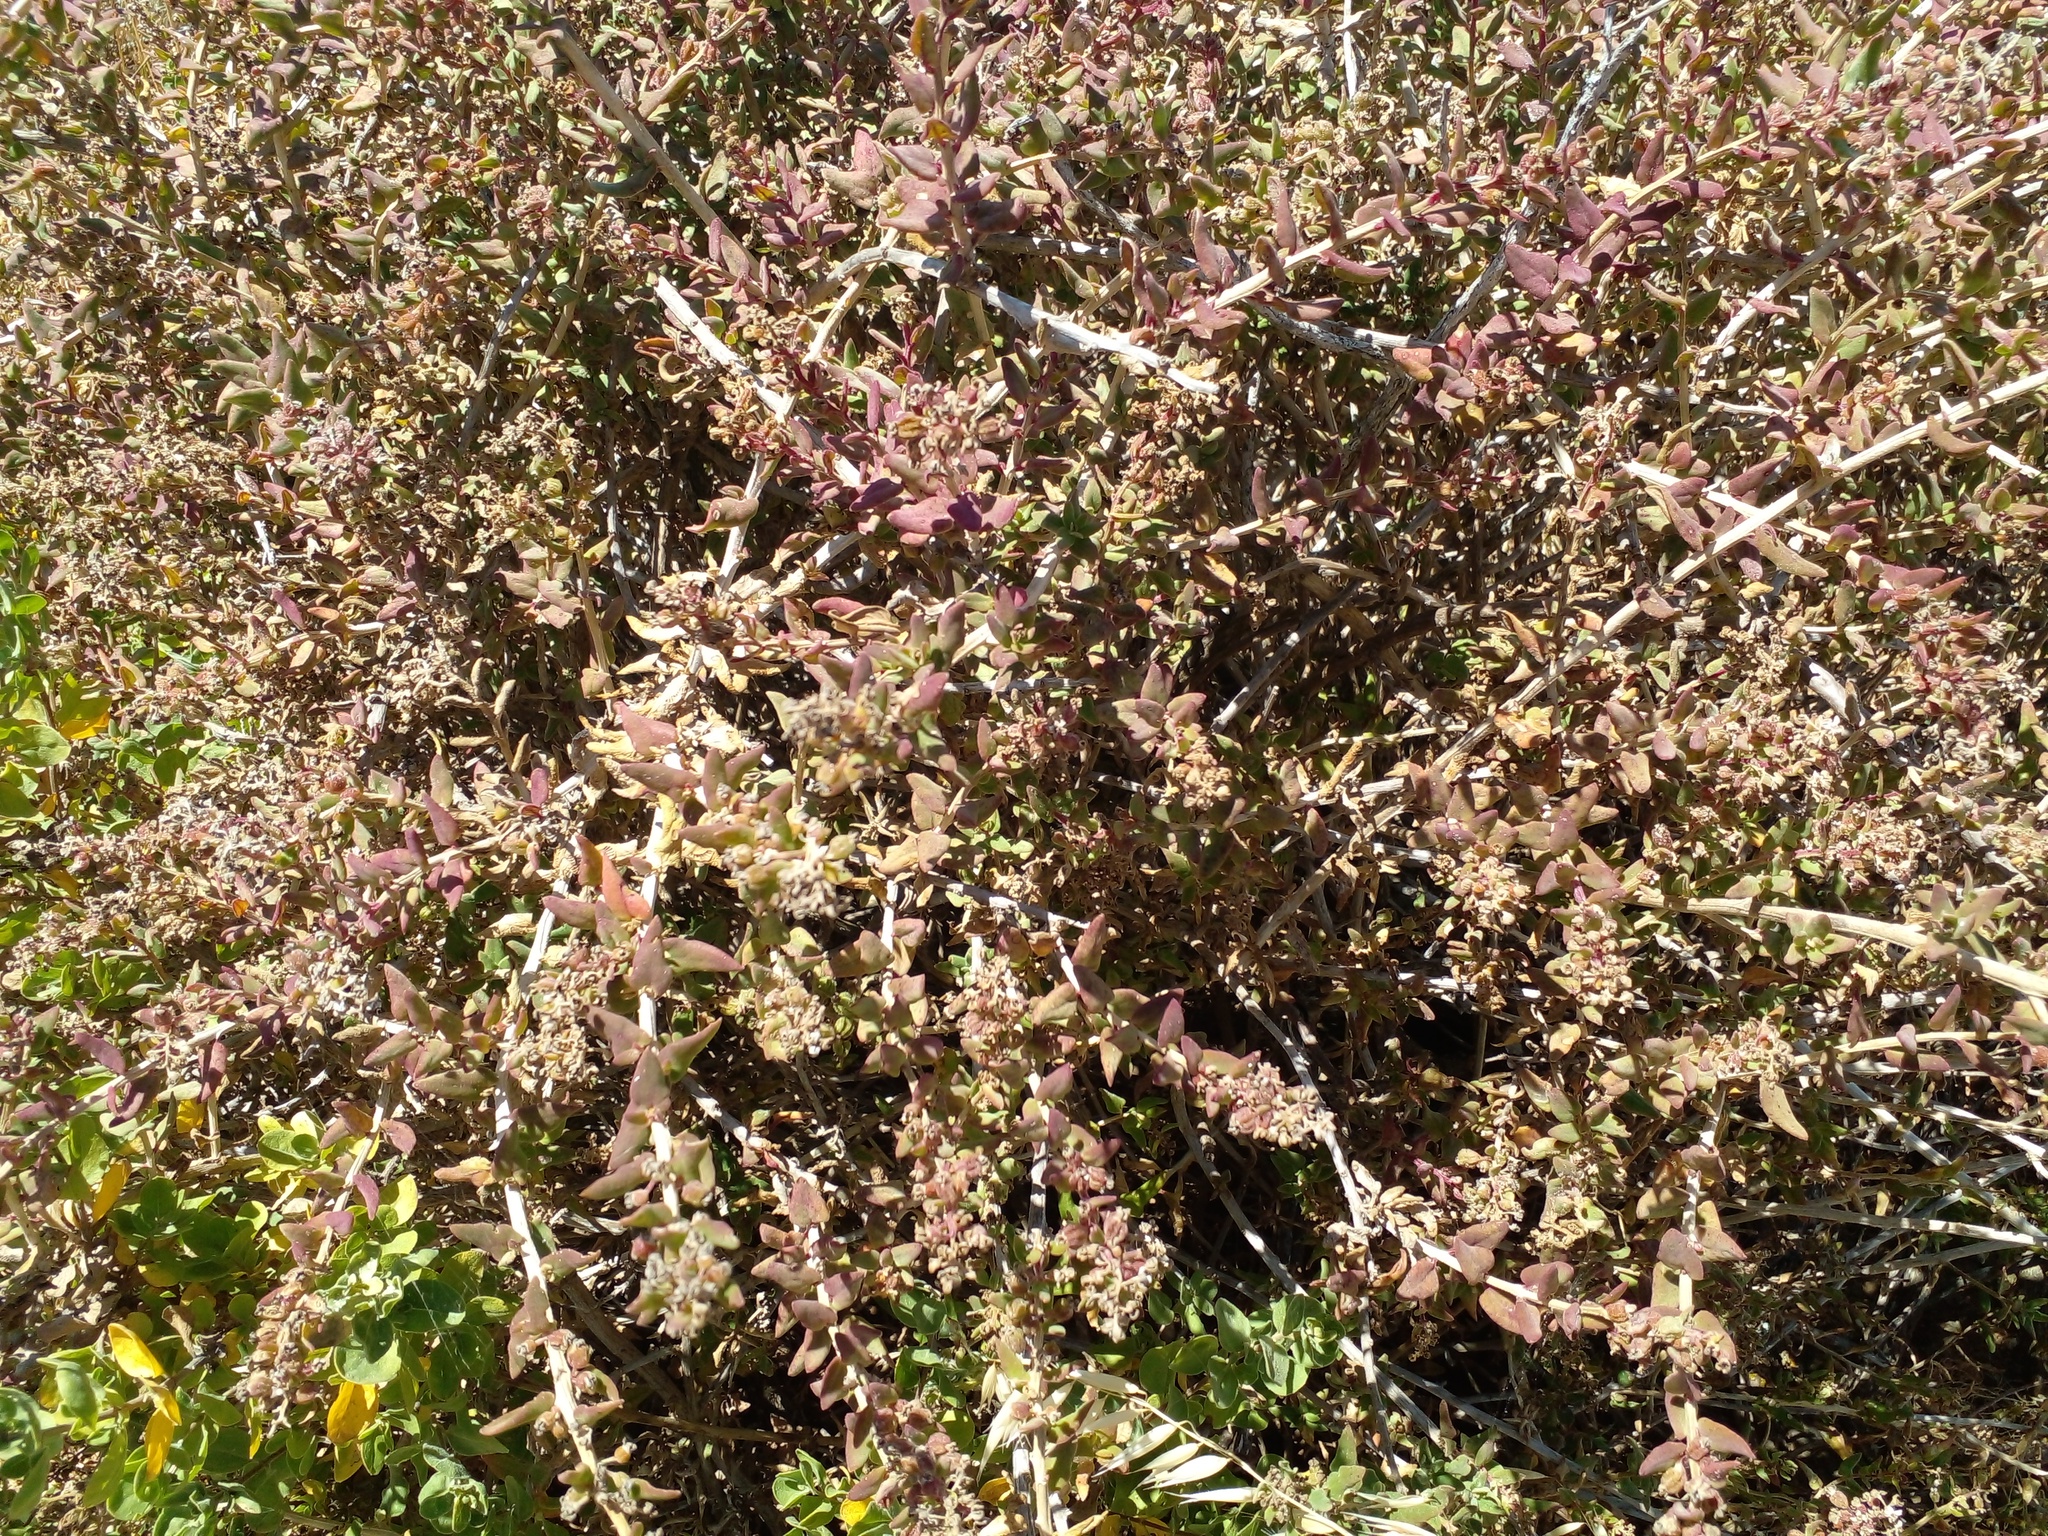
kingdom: Plantae
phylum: Tracheophyta
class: Magnoliopsida
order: Caryophyllales
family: Aizoaceae
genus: Tetragonia
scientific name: Tetragonia fruticosa
